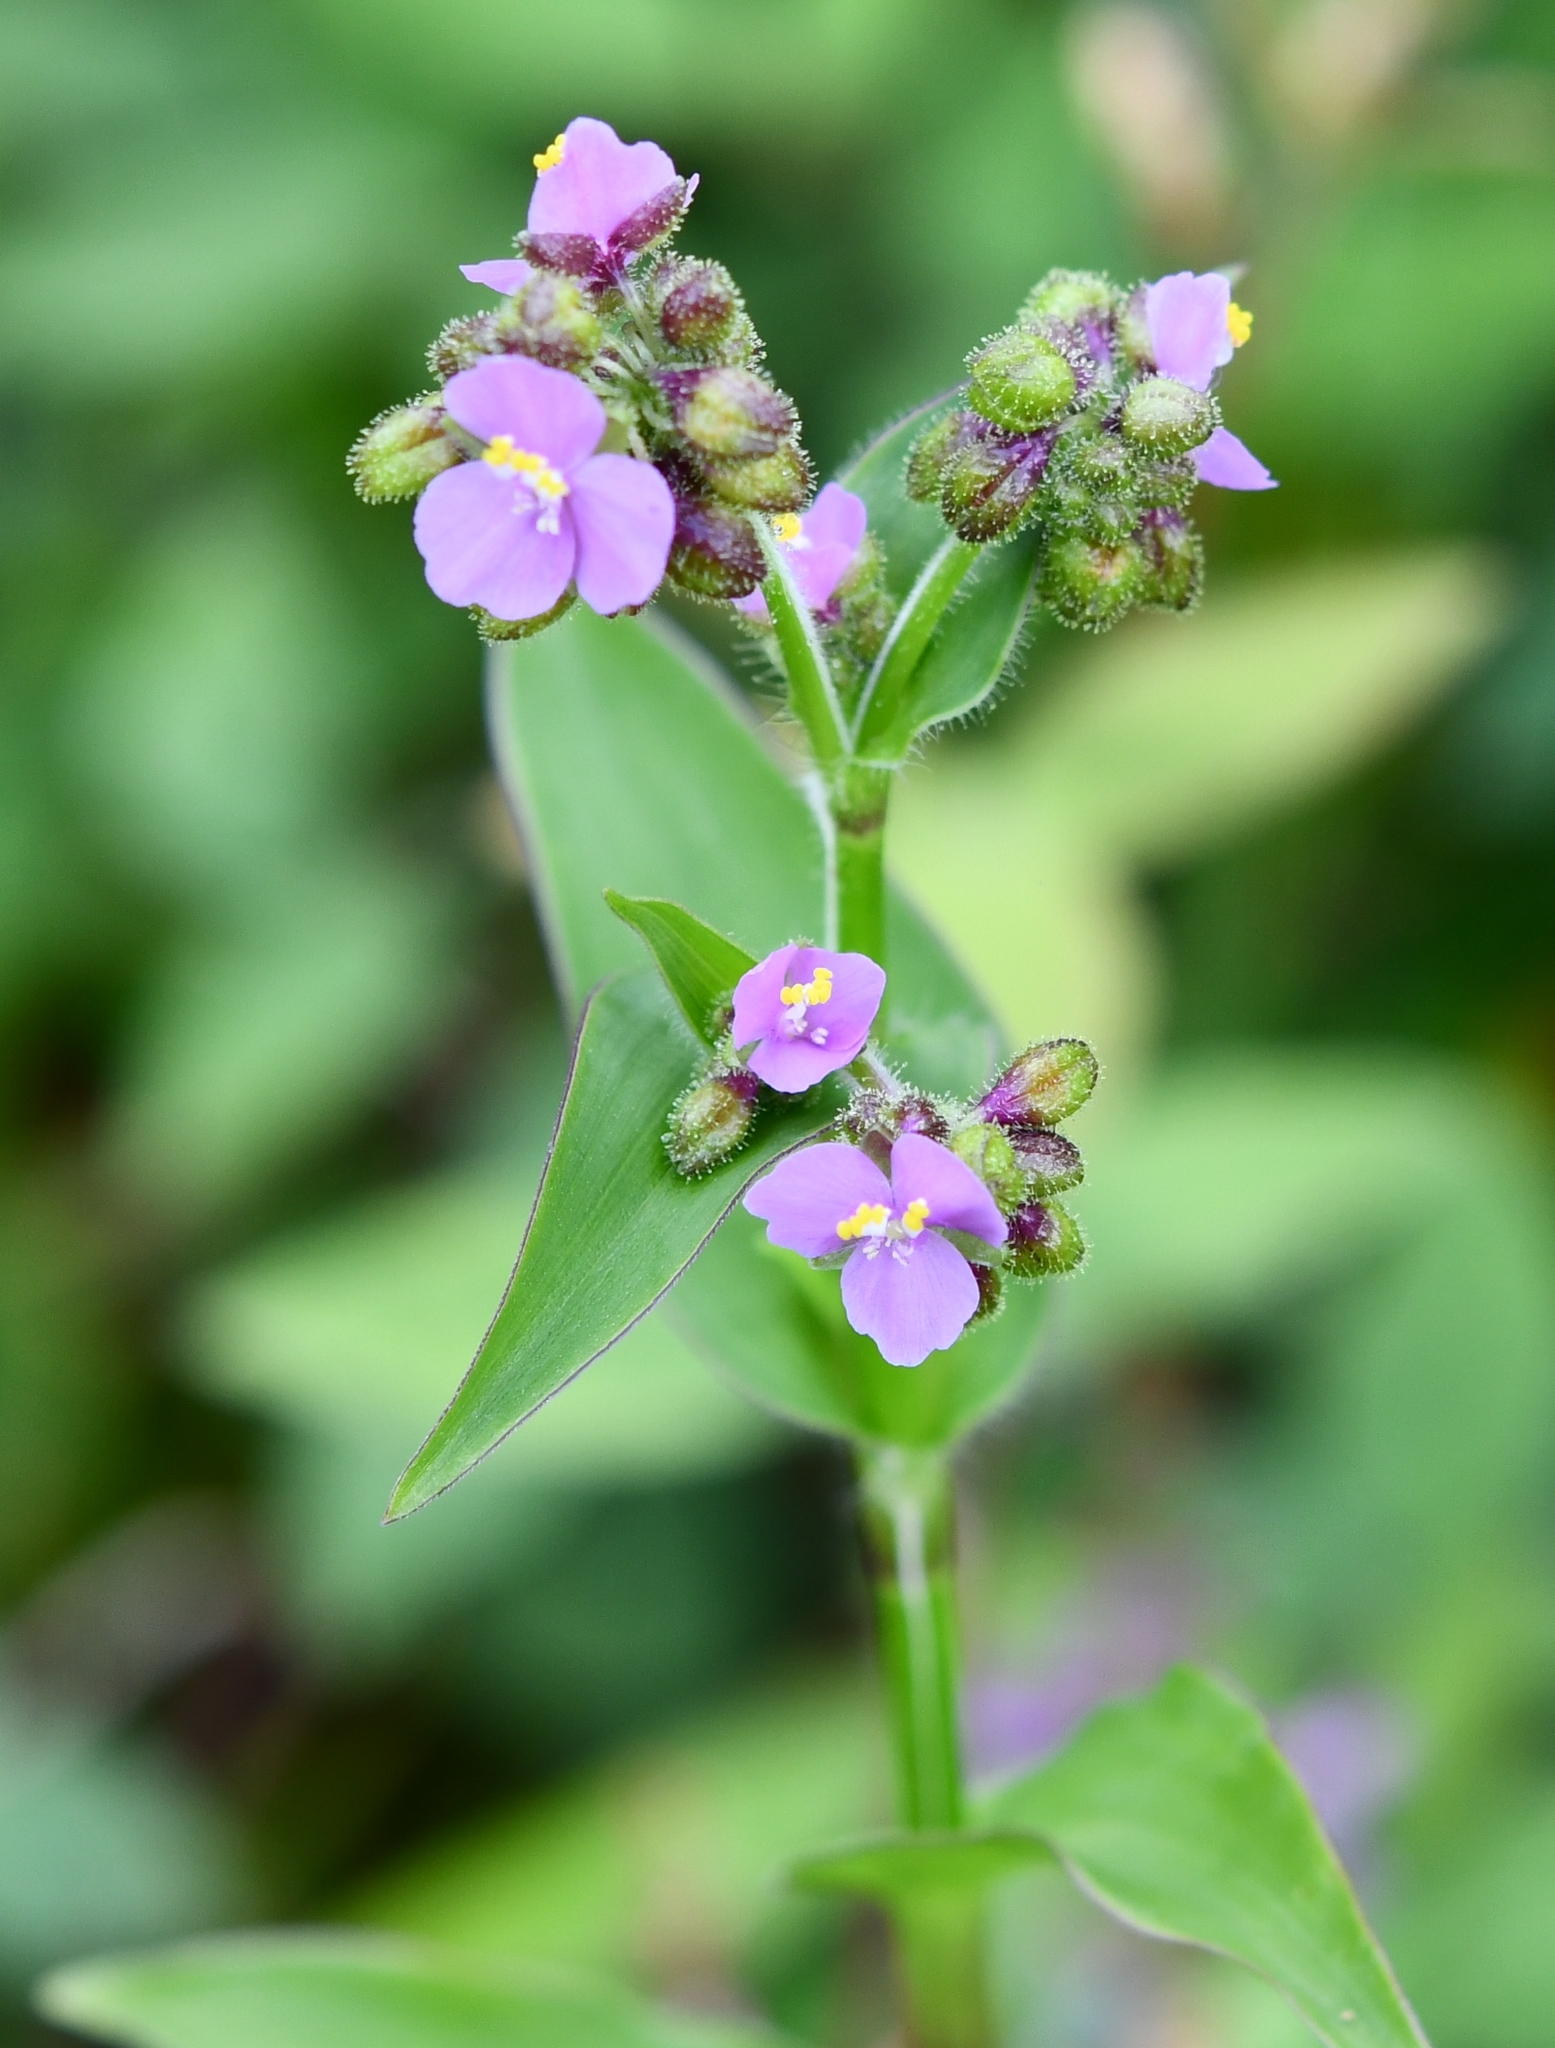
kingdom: Plantae
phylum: Tracheophyta
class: Liliopsida
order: Commelinales
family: Commelinaceae
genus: Callisia
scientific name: Callisia purpurascens
